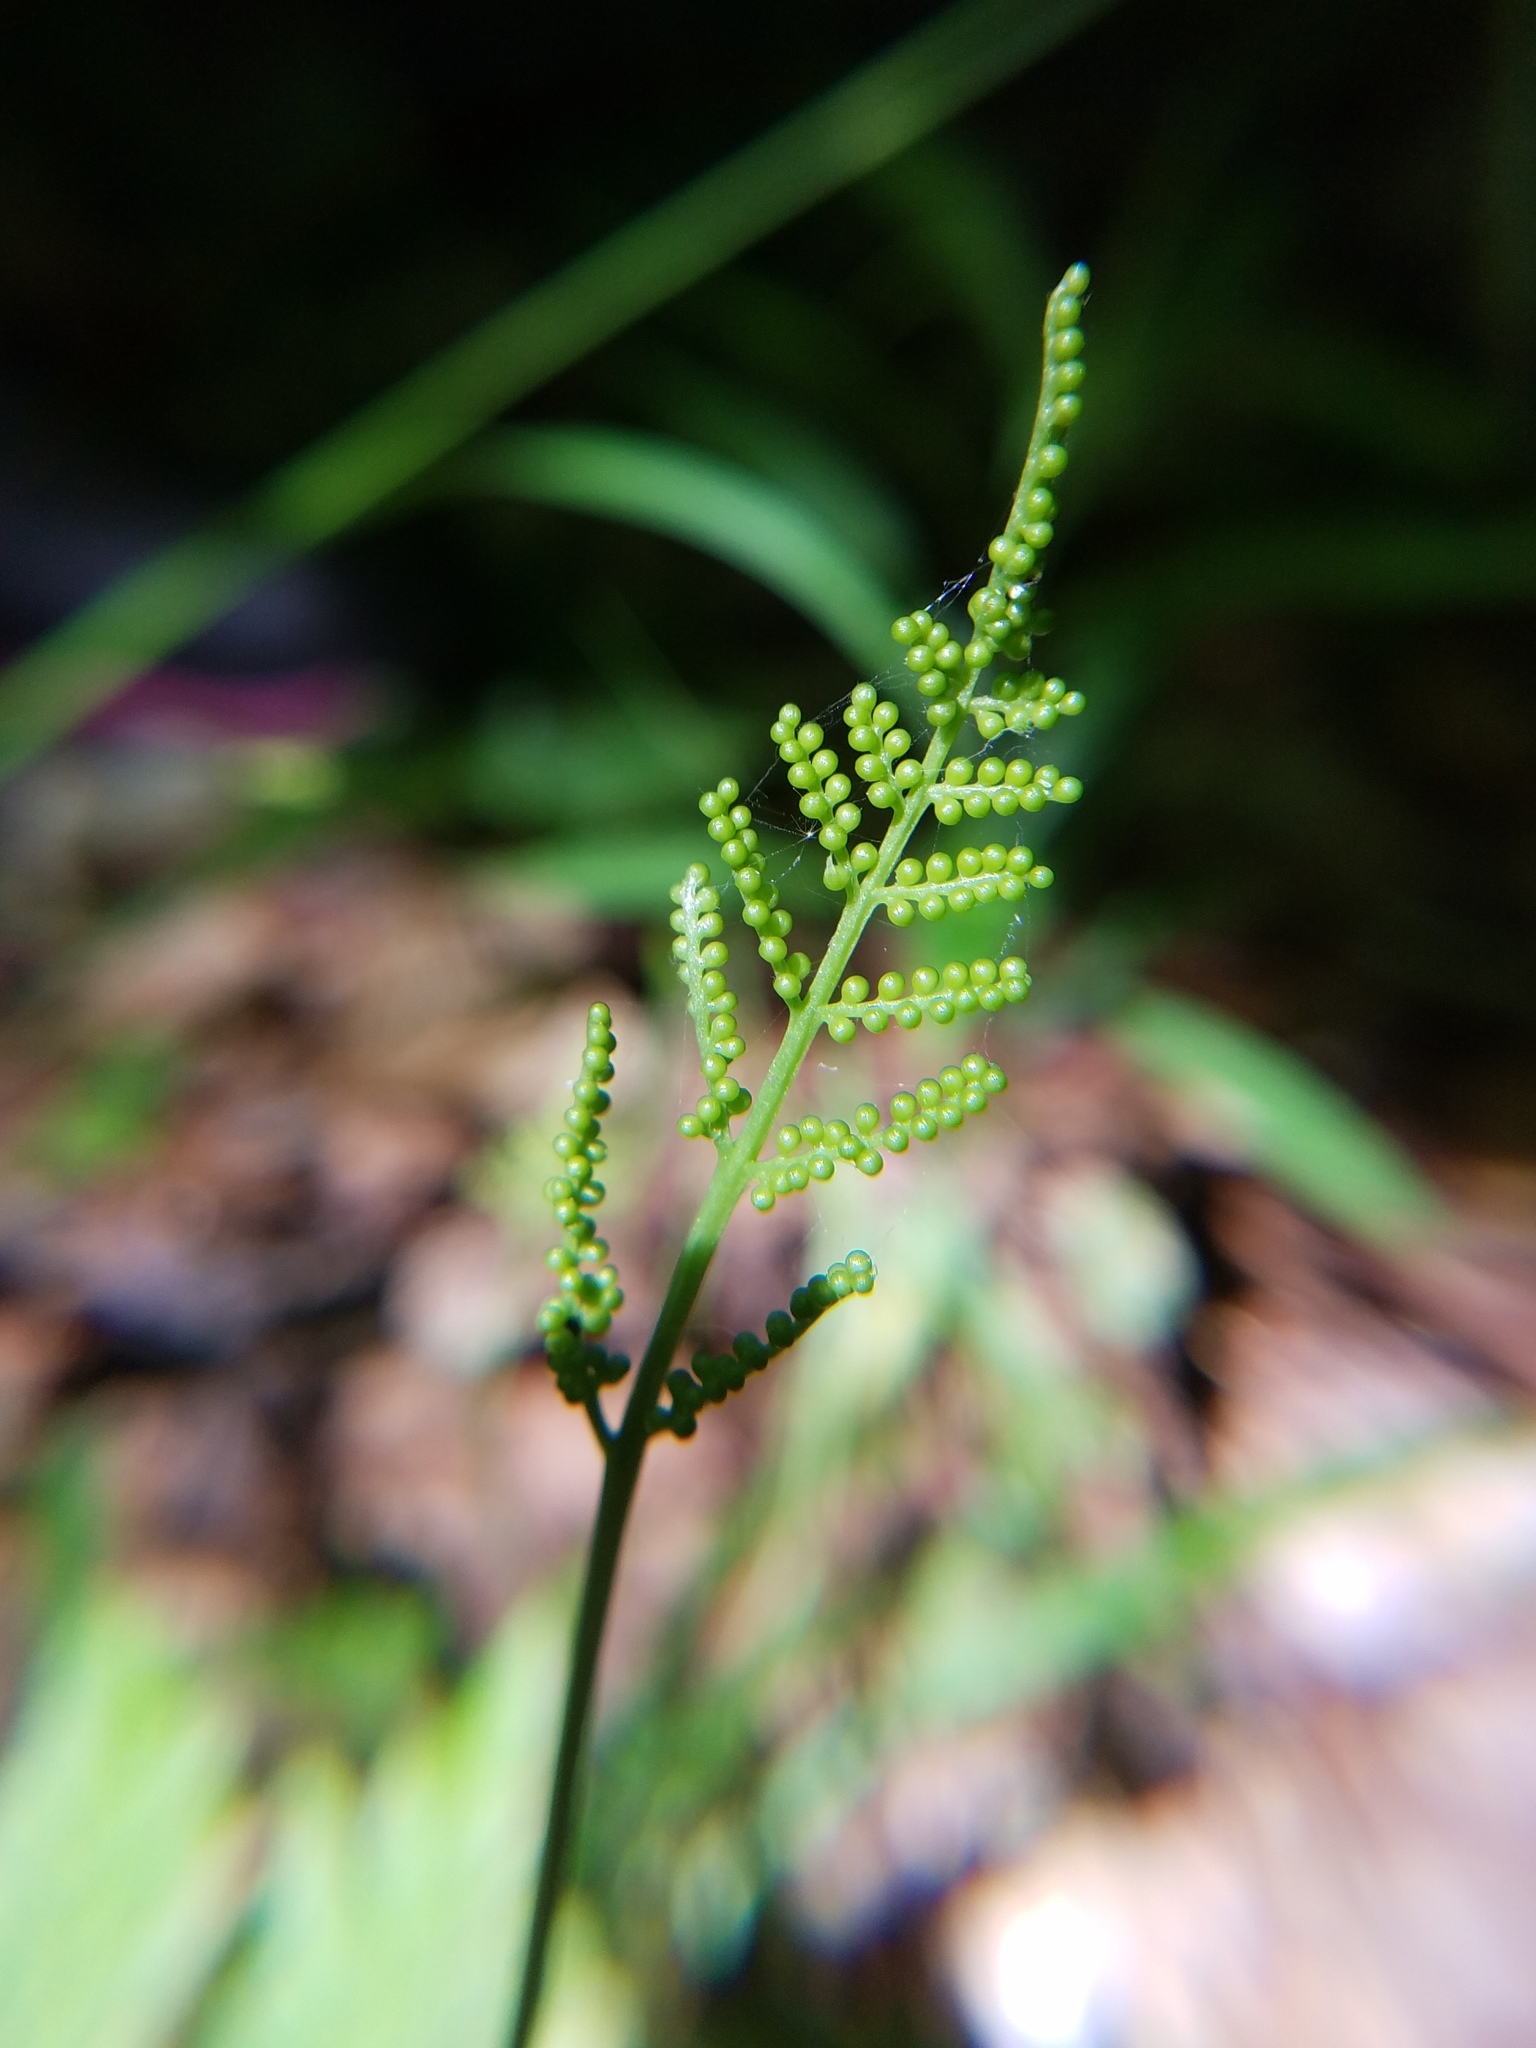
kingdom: Plantae
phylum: Tracheophyta
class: Polypodiopsida
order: Ophioglossales
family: Ophioglossaceae
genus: Botrypus
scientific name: Botrypus virginianus
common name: Common grapefern
